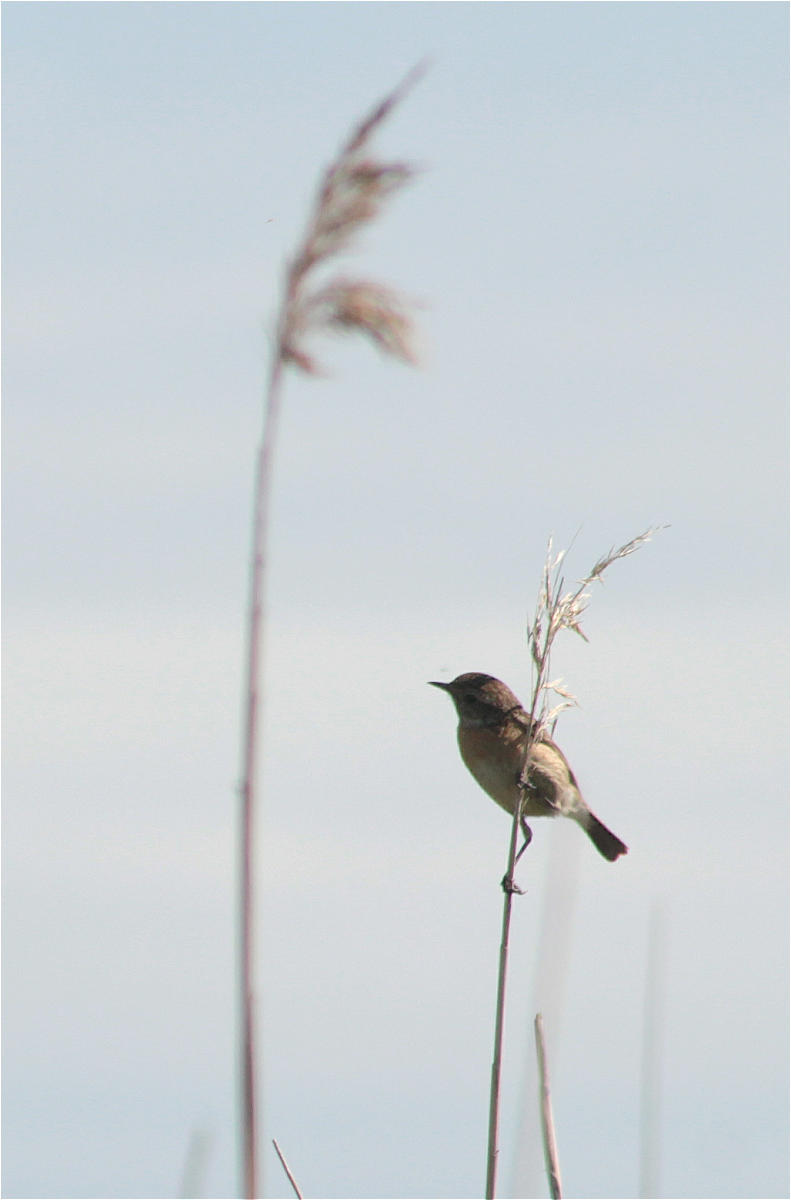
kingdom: Animalia
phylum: Chordata
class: Aves
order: Passeriformes
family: Muscicapidae
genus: Saxicola
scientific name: Saxicola rubicola
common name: European stonechat
